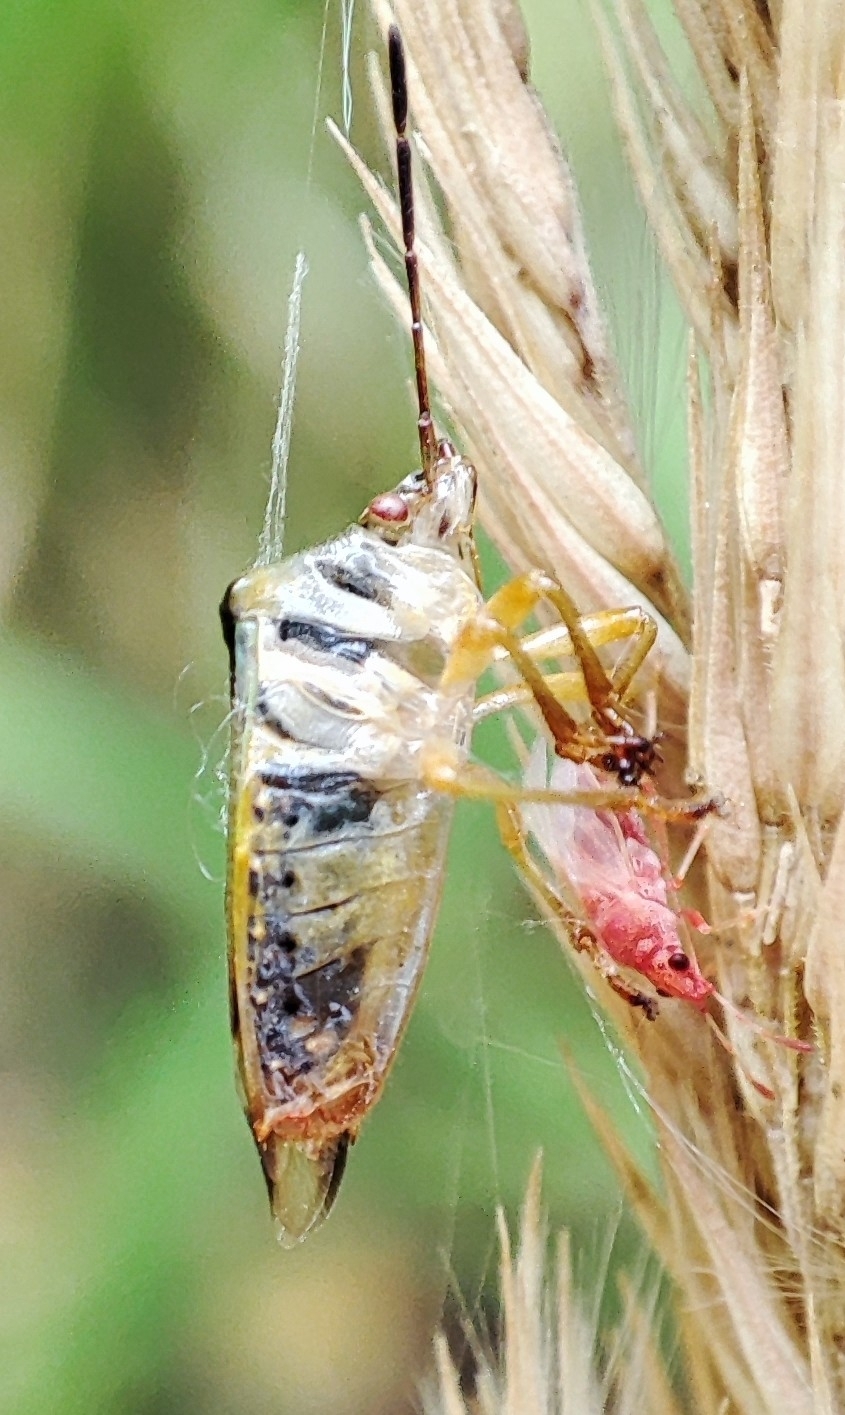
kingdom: Animalia
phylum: Arthropoda
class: Insecta
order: Hemiptera
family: Acanthosomatidae
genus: Elasmostethus
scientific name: Elasmostethus interstinctus
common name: Birch shieldbug
